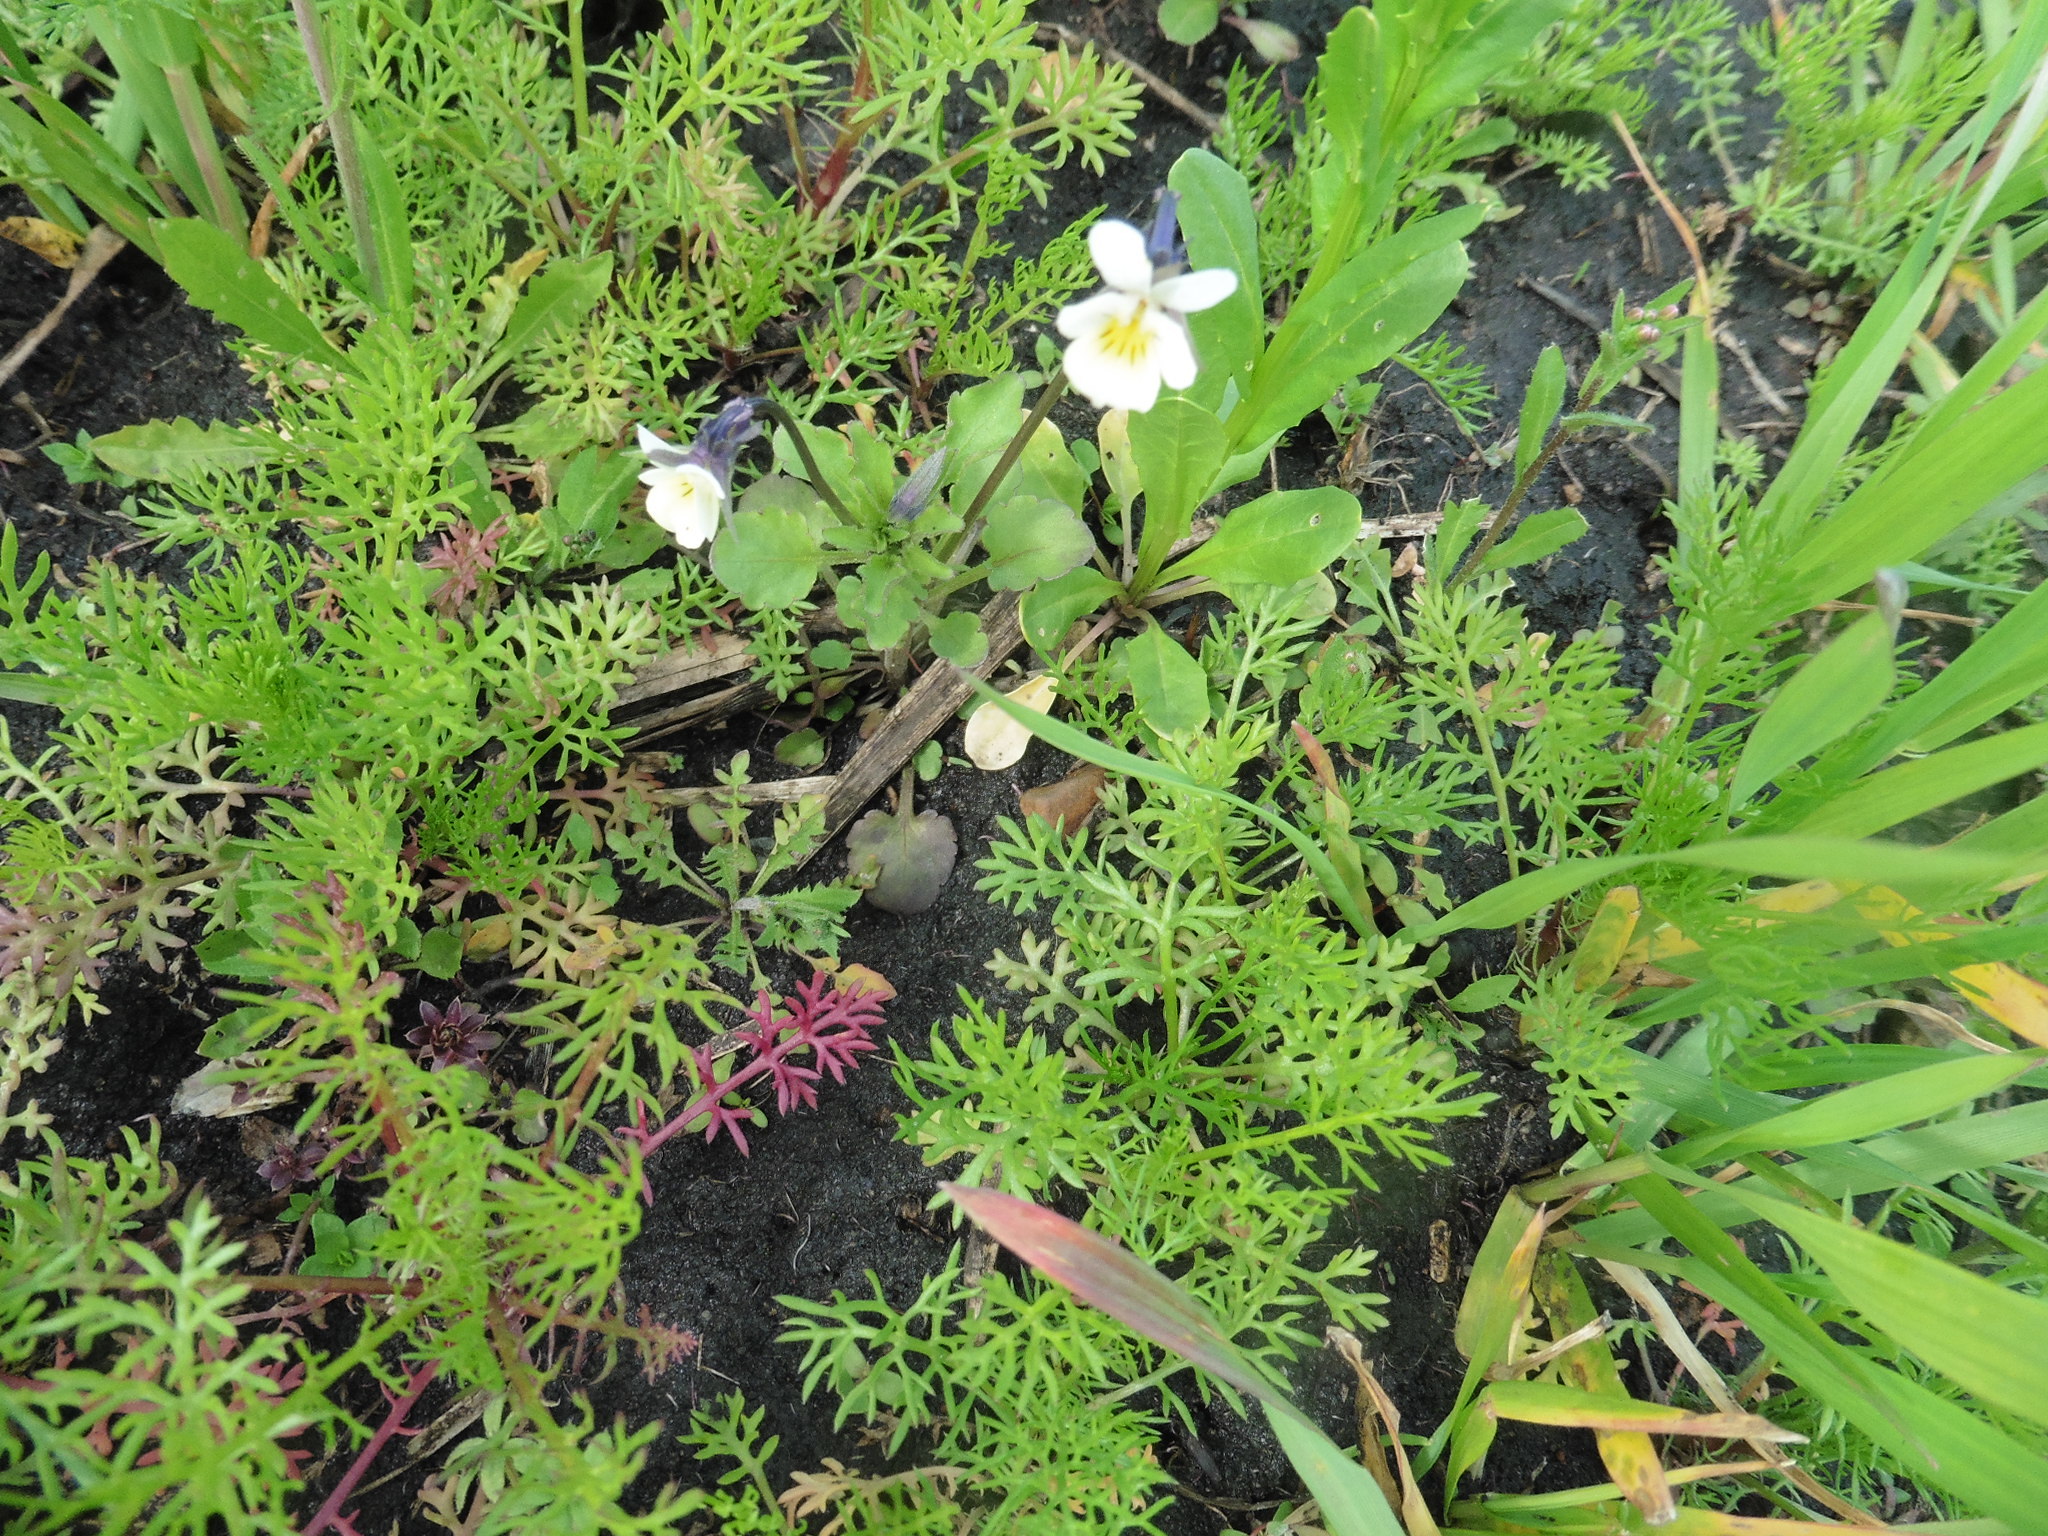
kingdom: Plantae
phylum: Tracheophyta
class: Magnoliopsida
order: Malpighiales
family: Violaceae
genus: Viola
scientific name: Viola arvensis
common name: Field pansy
